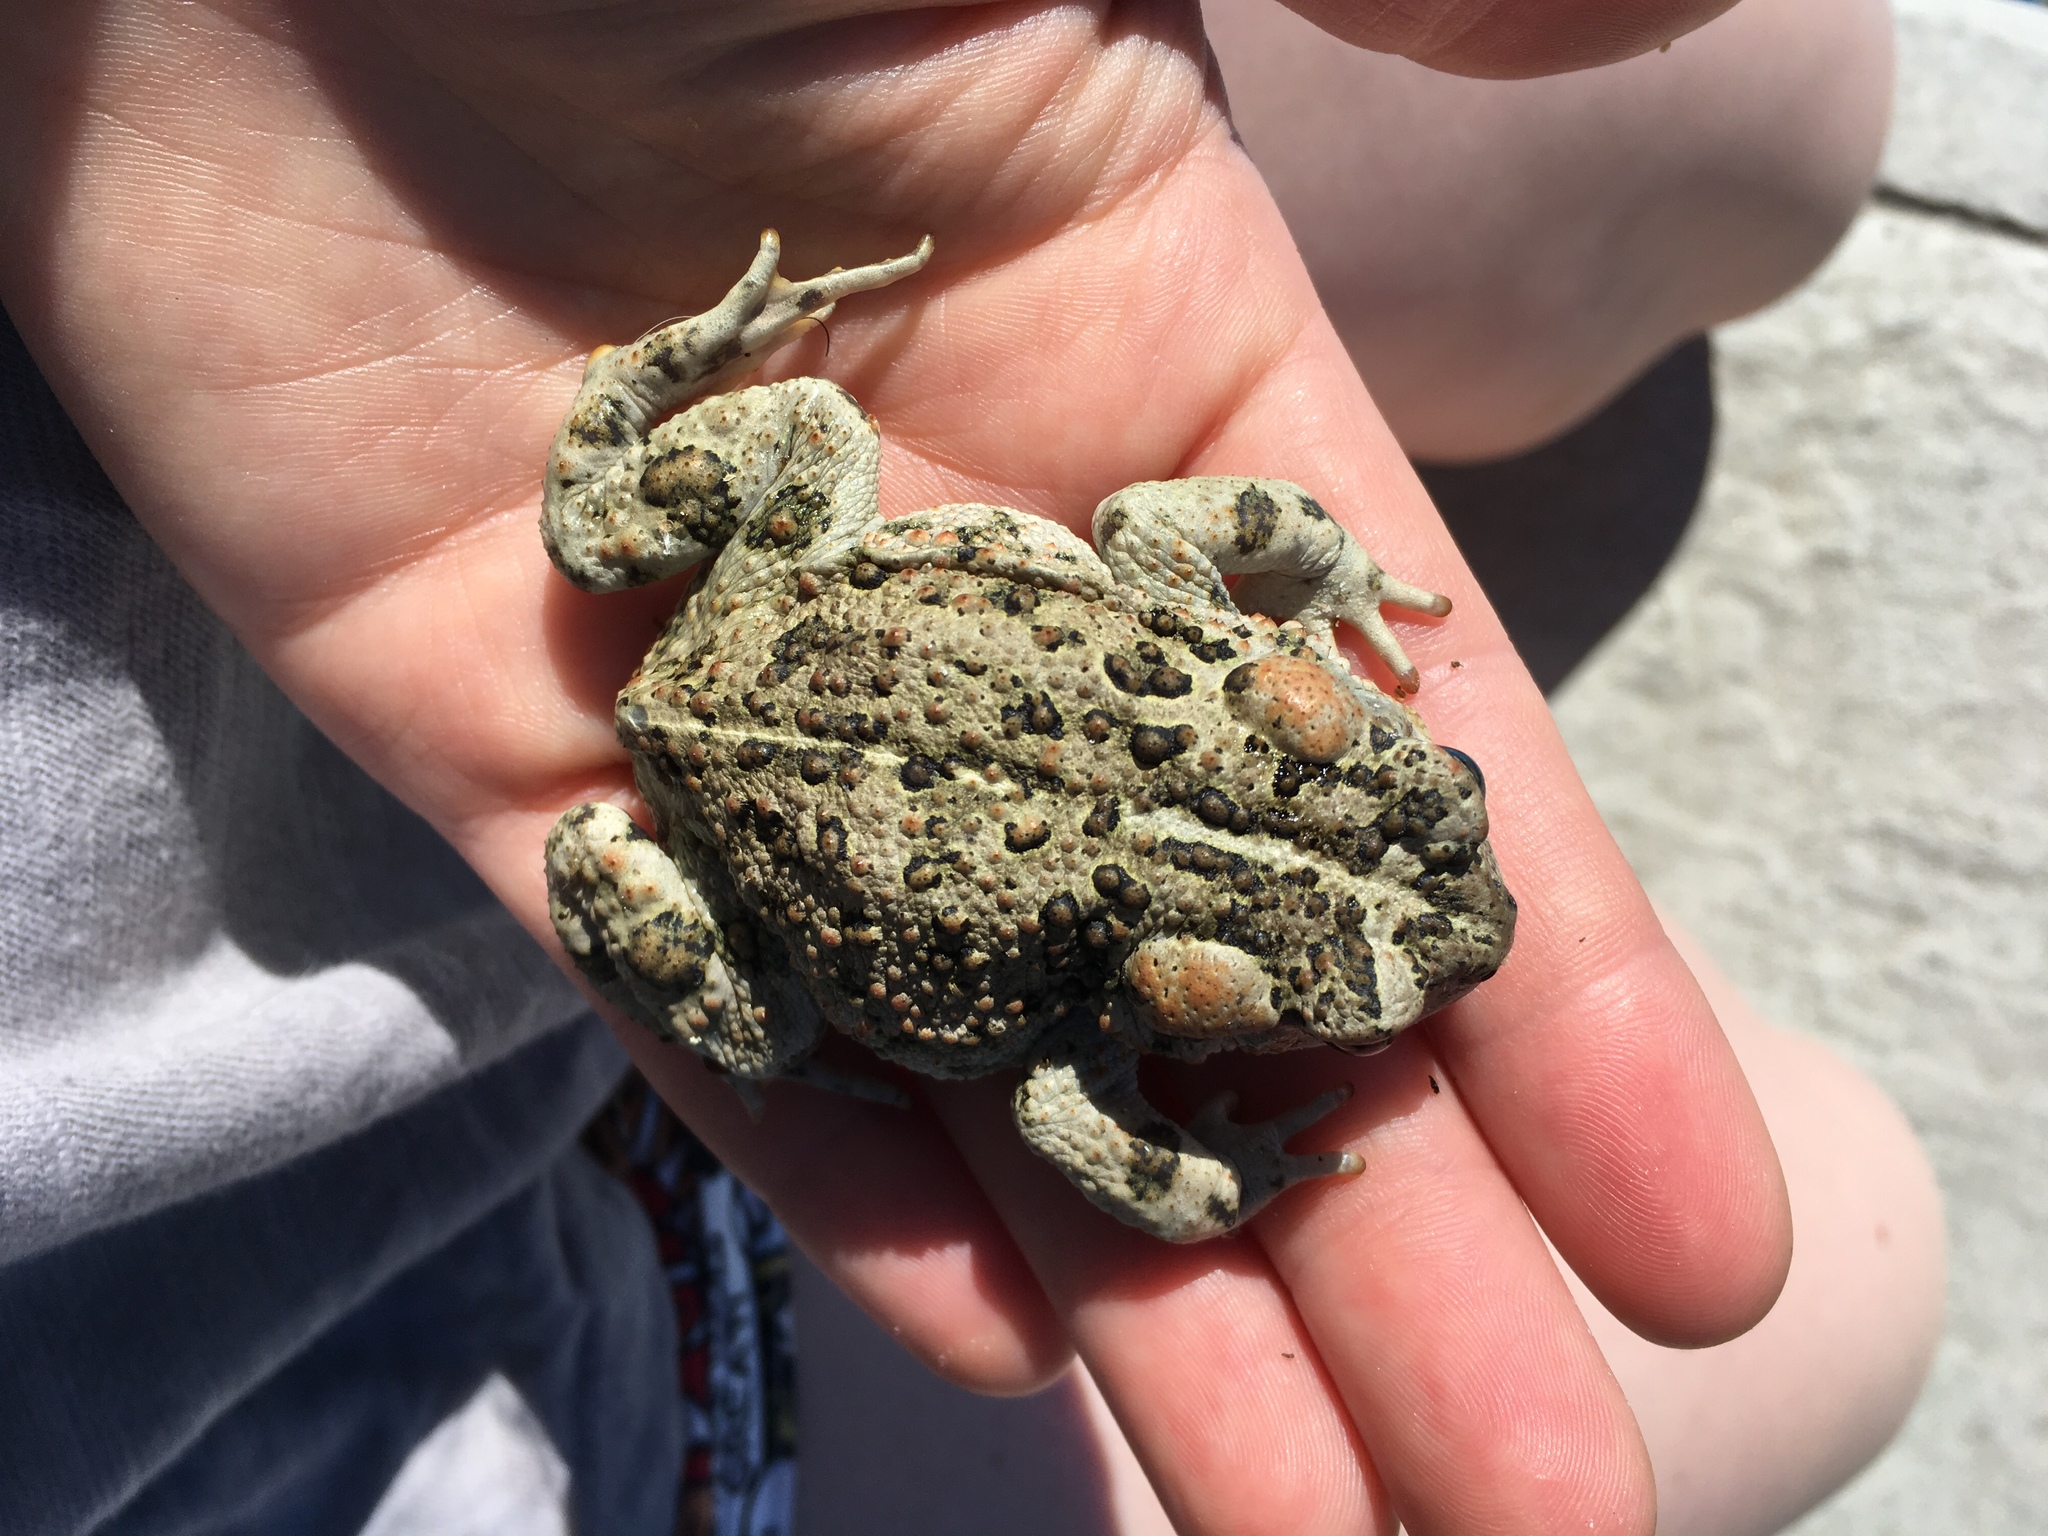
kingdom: Animalia
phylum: Chordata
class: Amphibia
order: Anura
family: Bufonidae
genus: Anaxyrus
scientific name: Anaxyrus boreas
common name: Western toad
